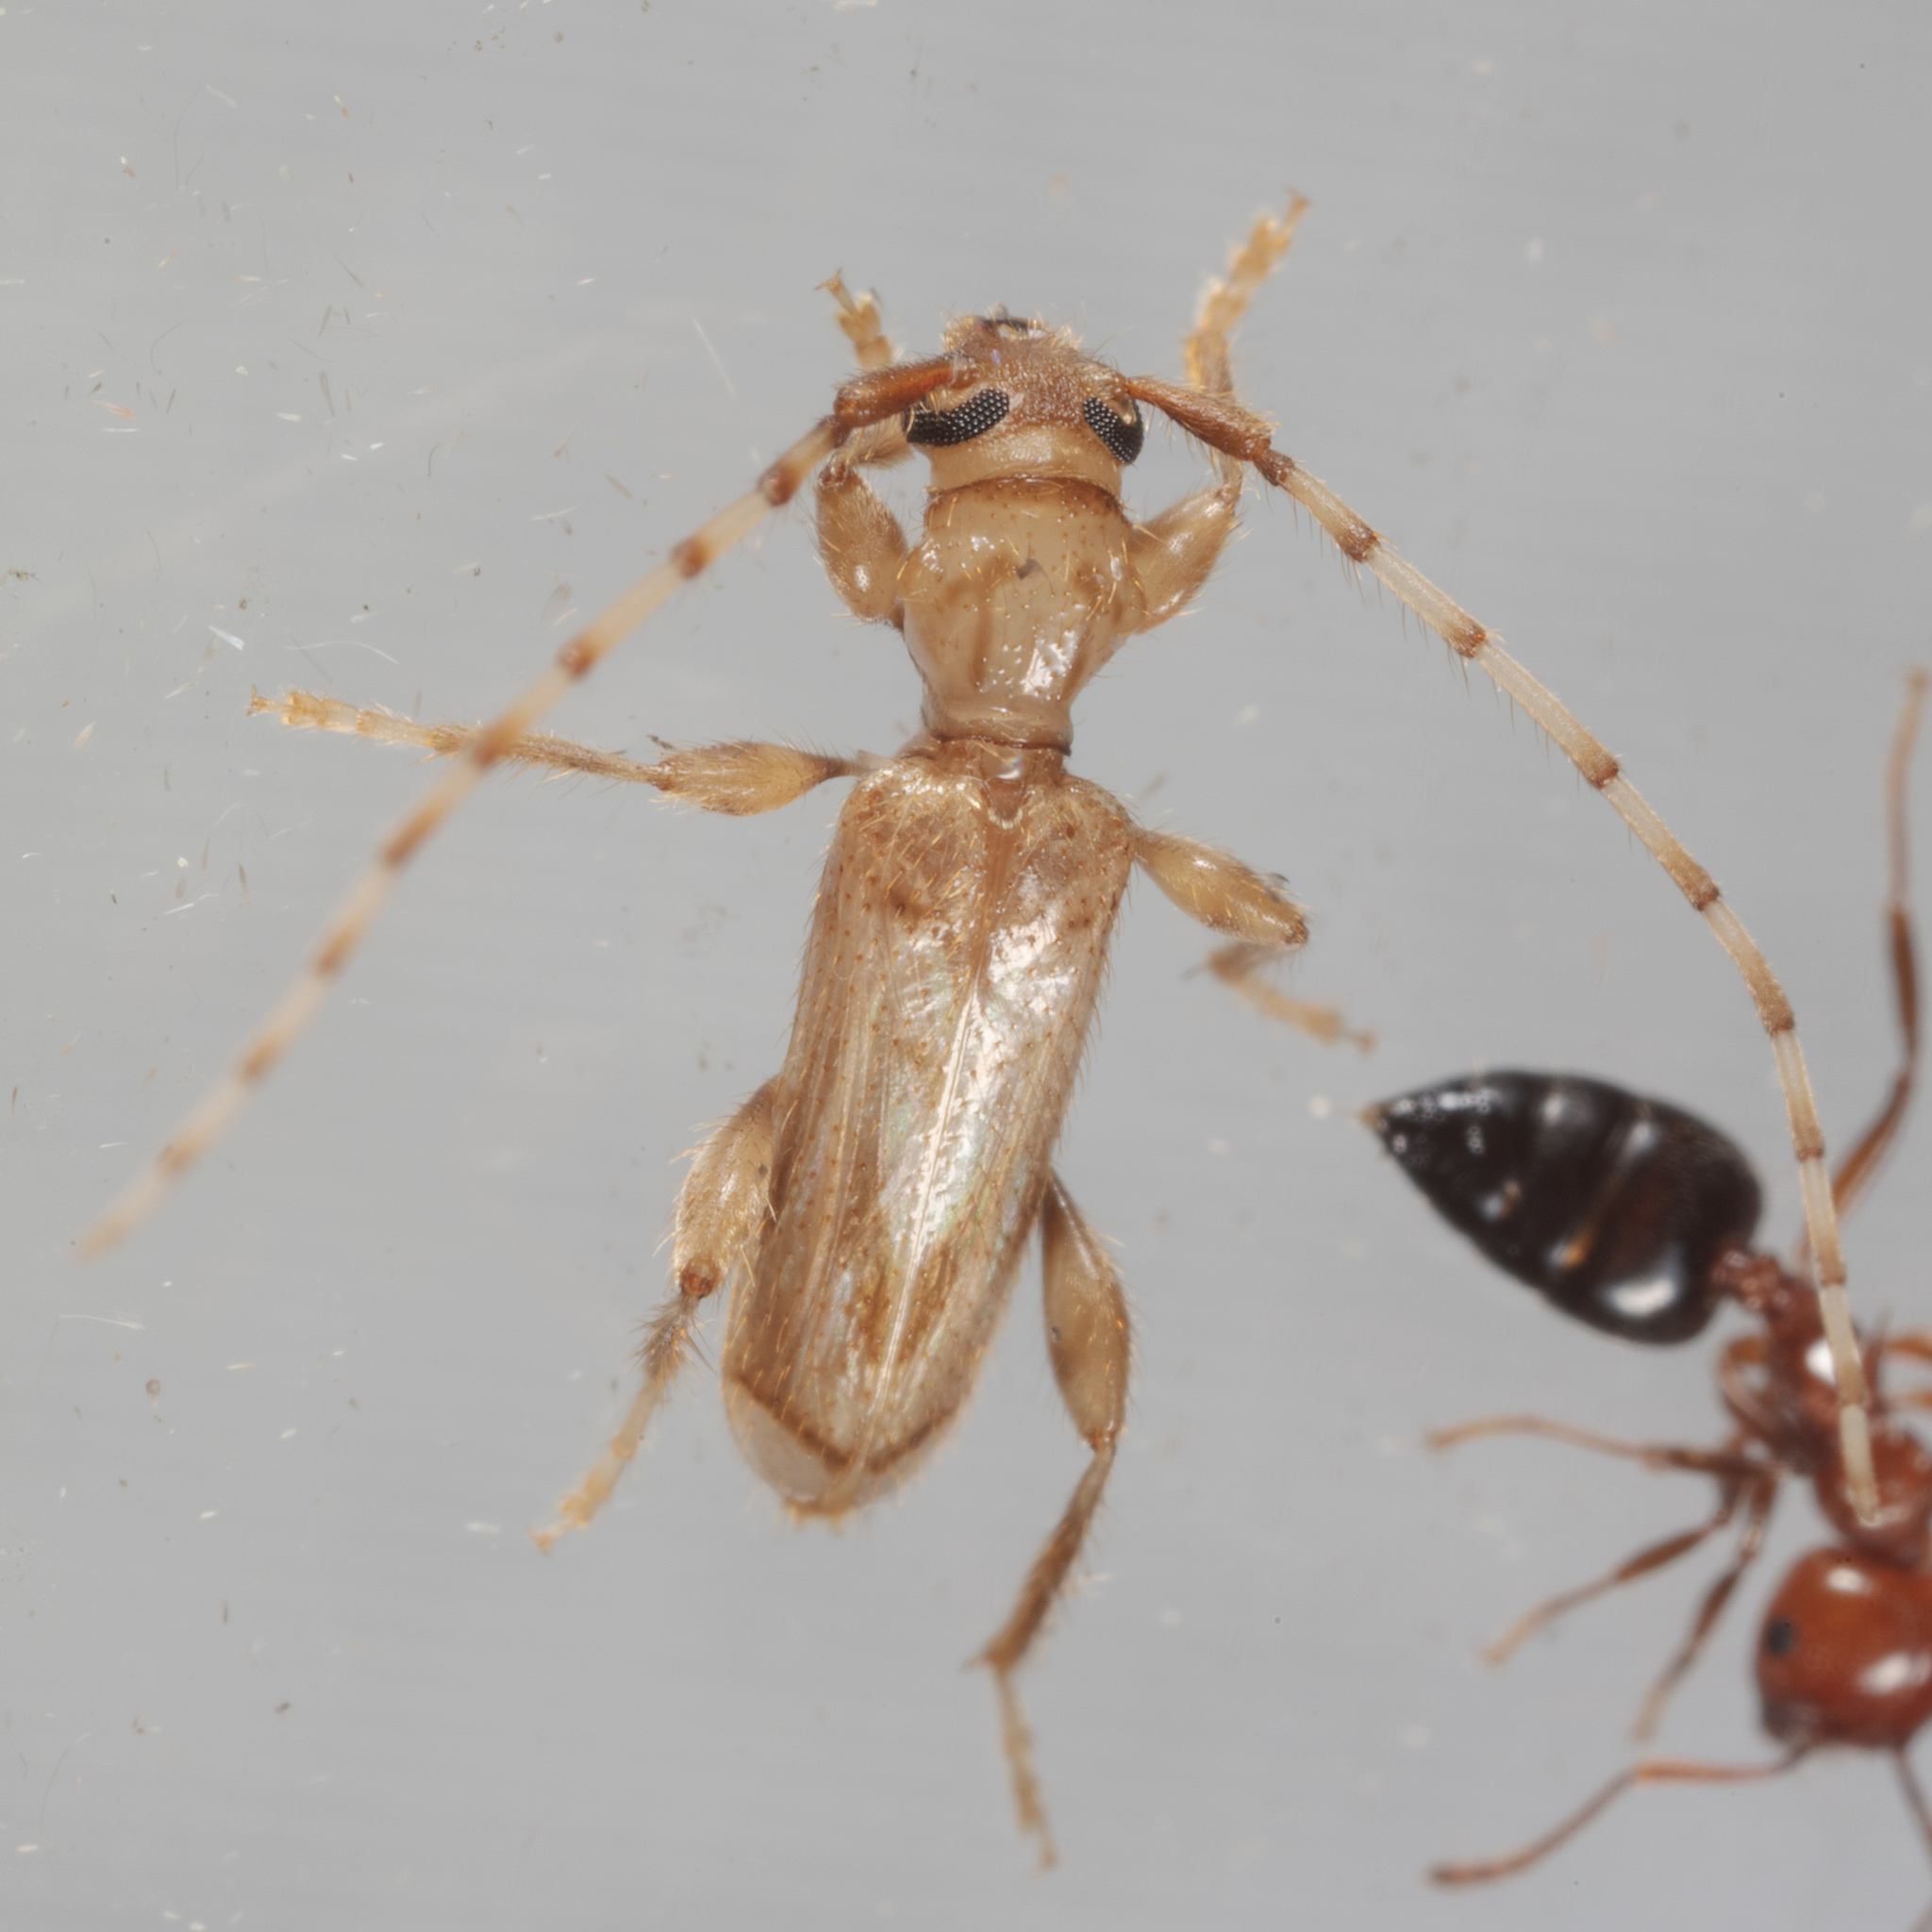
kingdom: Animalia
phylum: Arthropoda
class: Insecta
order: Coleoptera
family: Cerambycidae
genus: Obrium
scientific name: Obrium maculatum
